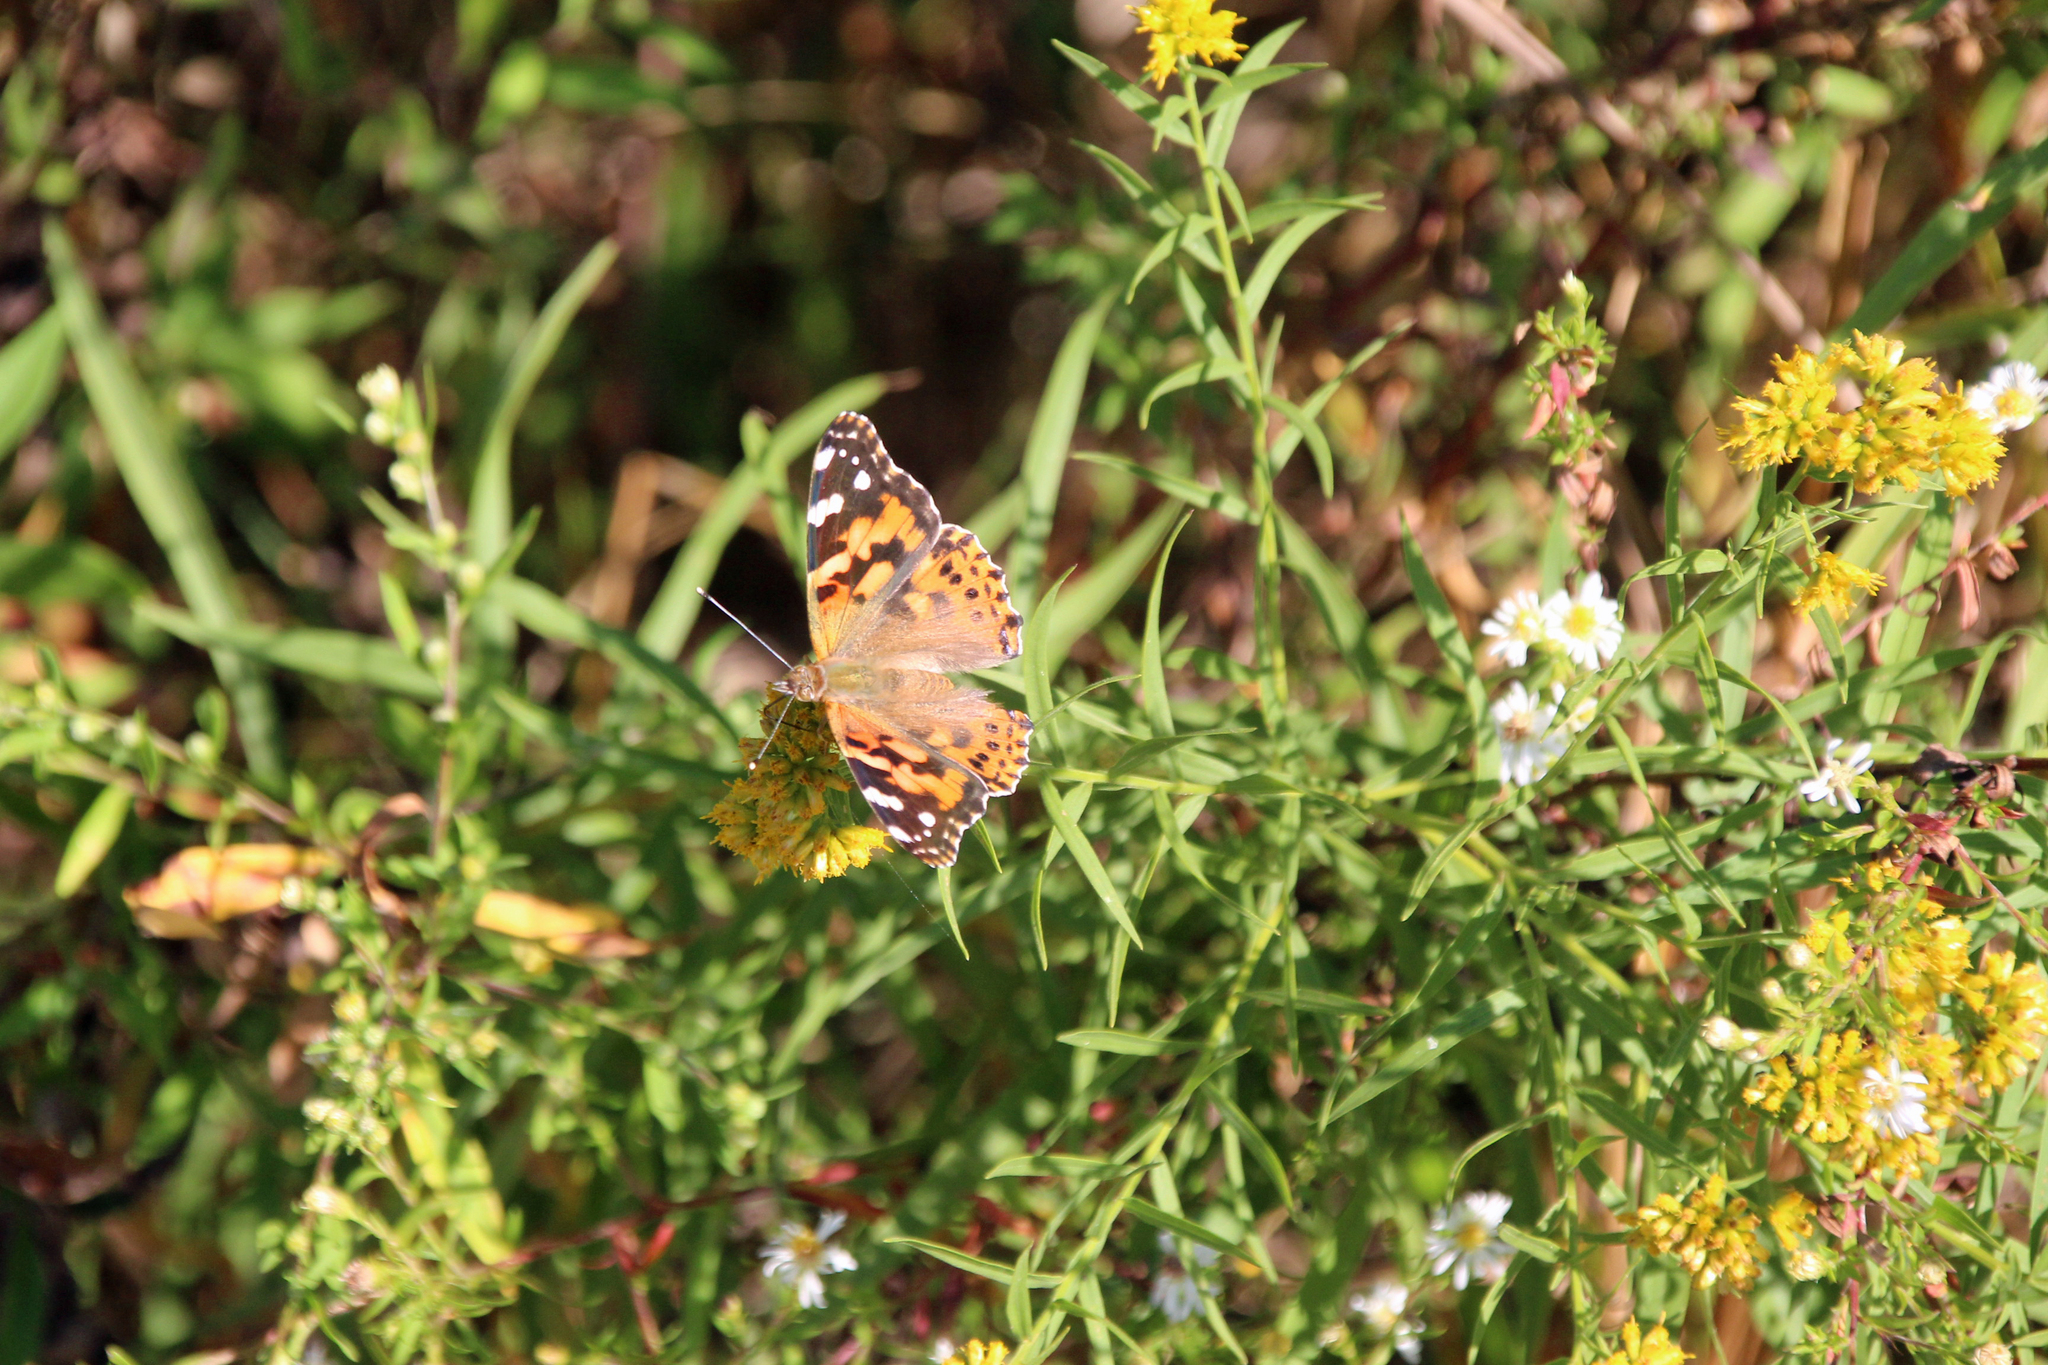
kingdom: Animalia
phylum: Arthropoda
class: Insecta
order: Lepidoptera
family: Nymphalidae
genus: Vanessa
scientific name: Vanessa cardui
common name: Painted lady
